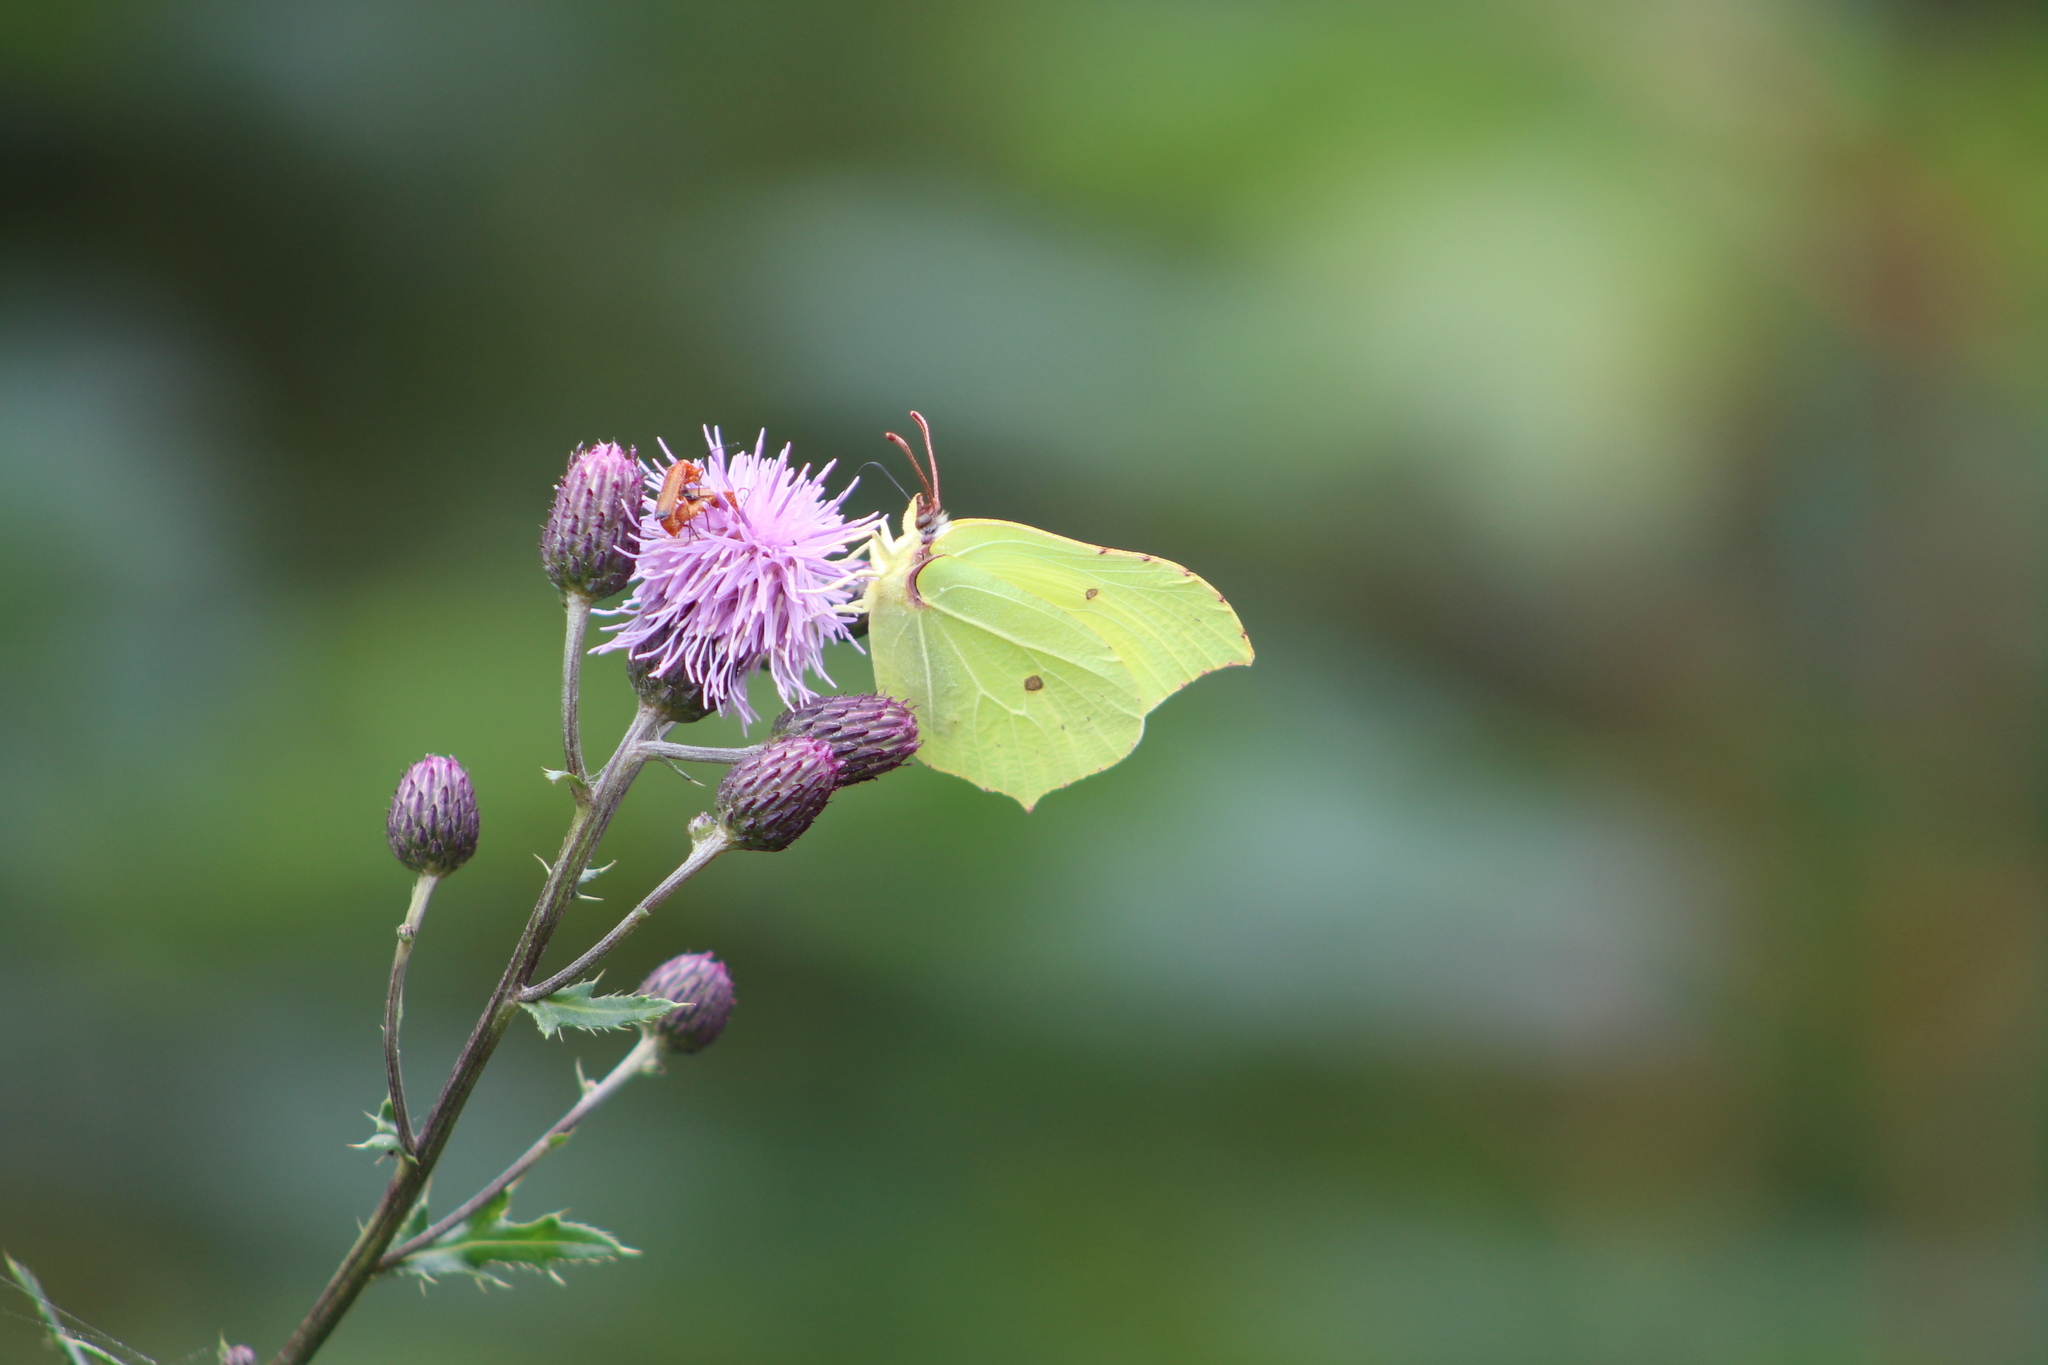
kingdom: Animalia
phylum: Arthropoda
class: Insecta
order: Lepidoptera
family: Pieridae
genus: Gonepteryx
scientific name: Gonepteryx rhamni
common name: Brimstone
